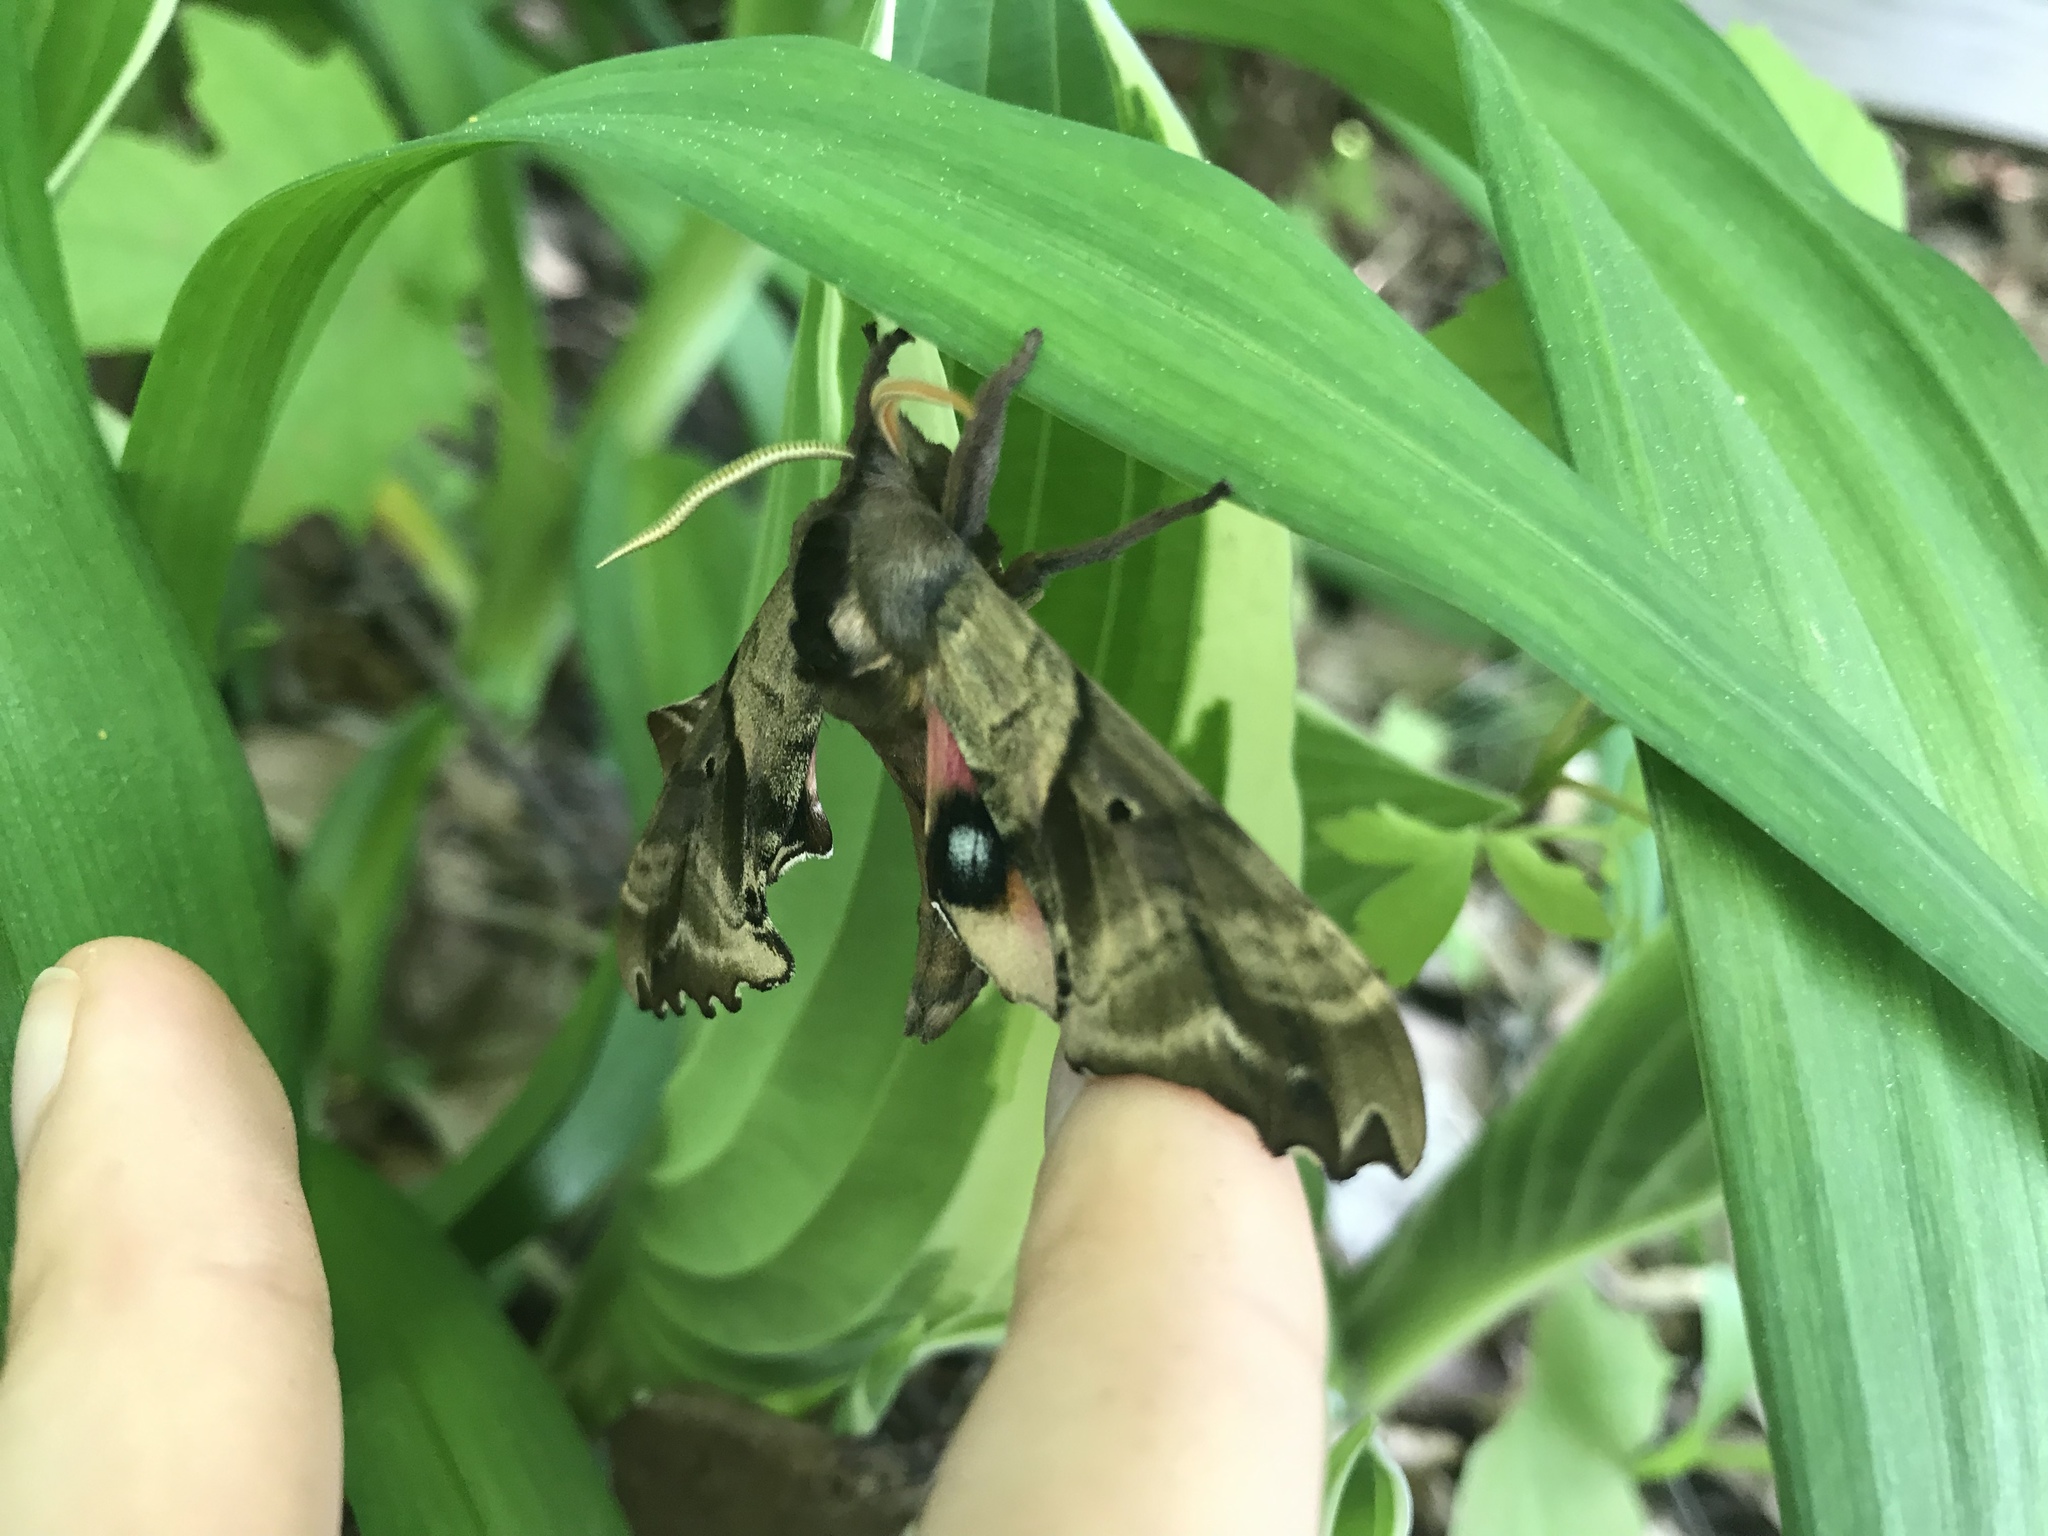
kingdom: Animalia
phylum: Arthropoda
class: Insecta
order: Lepidoptera
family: Sphingidae
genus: Paonias
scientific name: Paonias excaecata
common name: Blind-eyed sphinx
